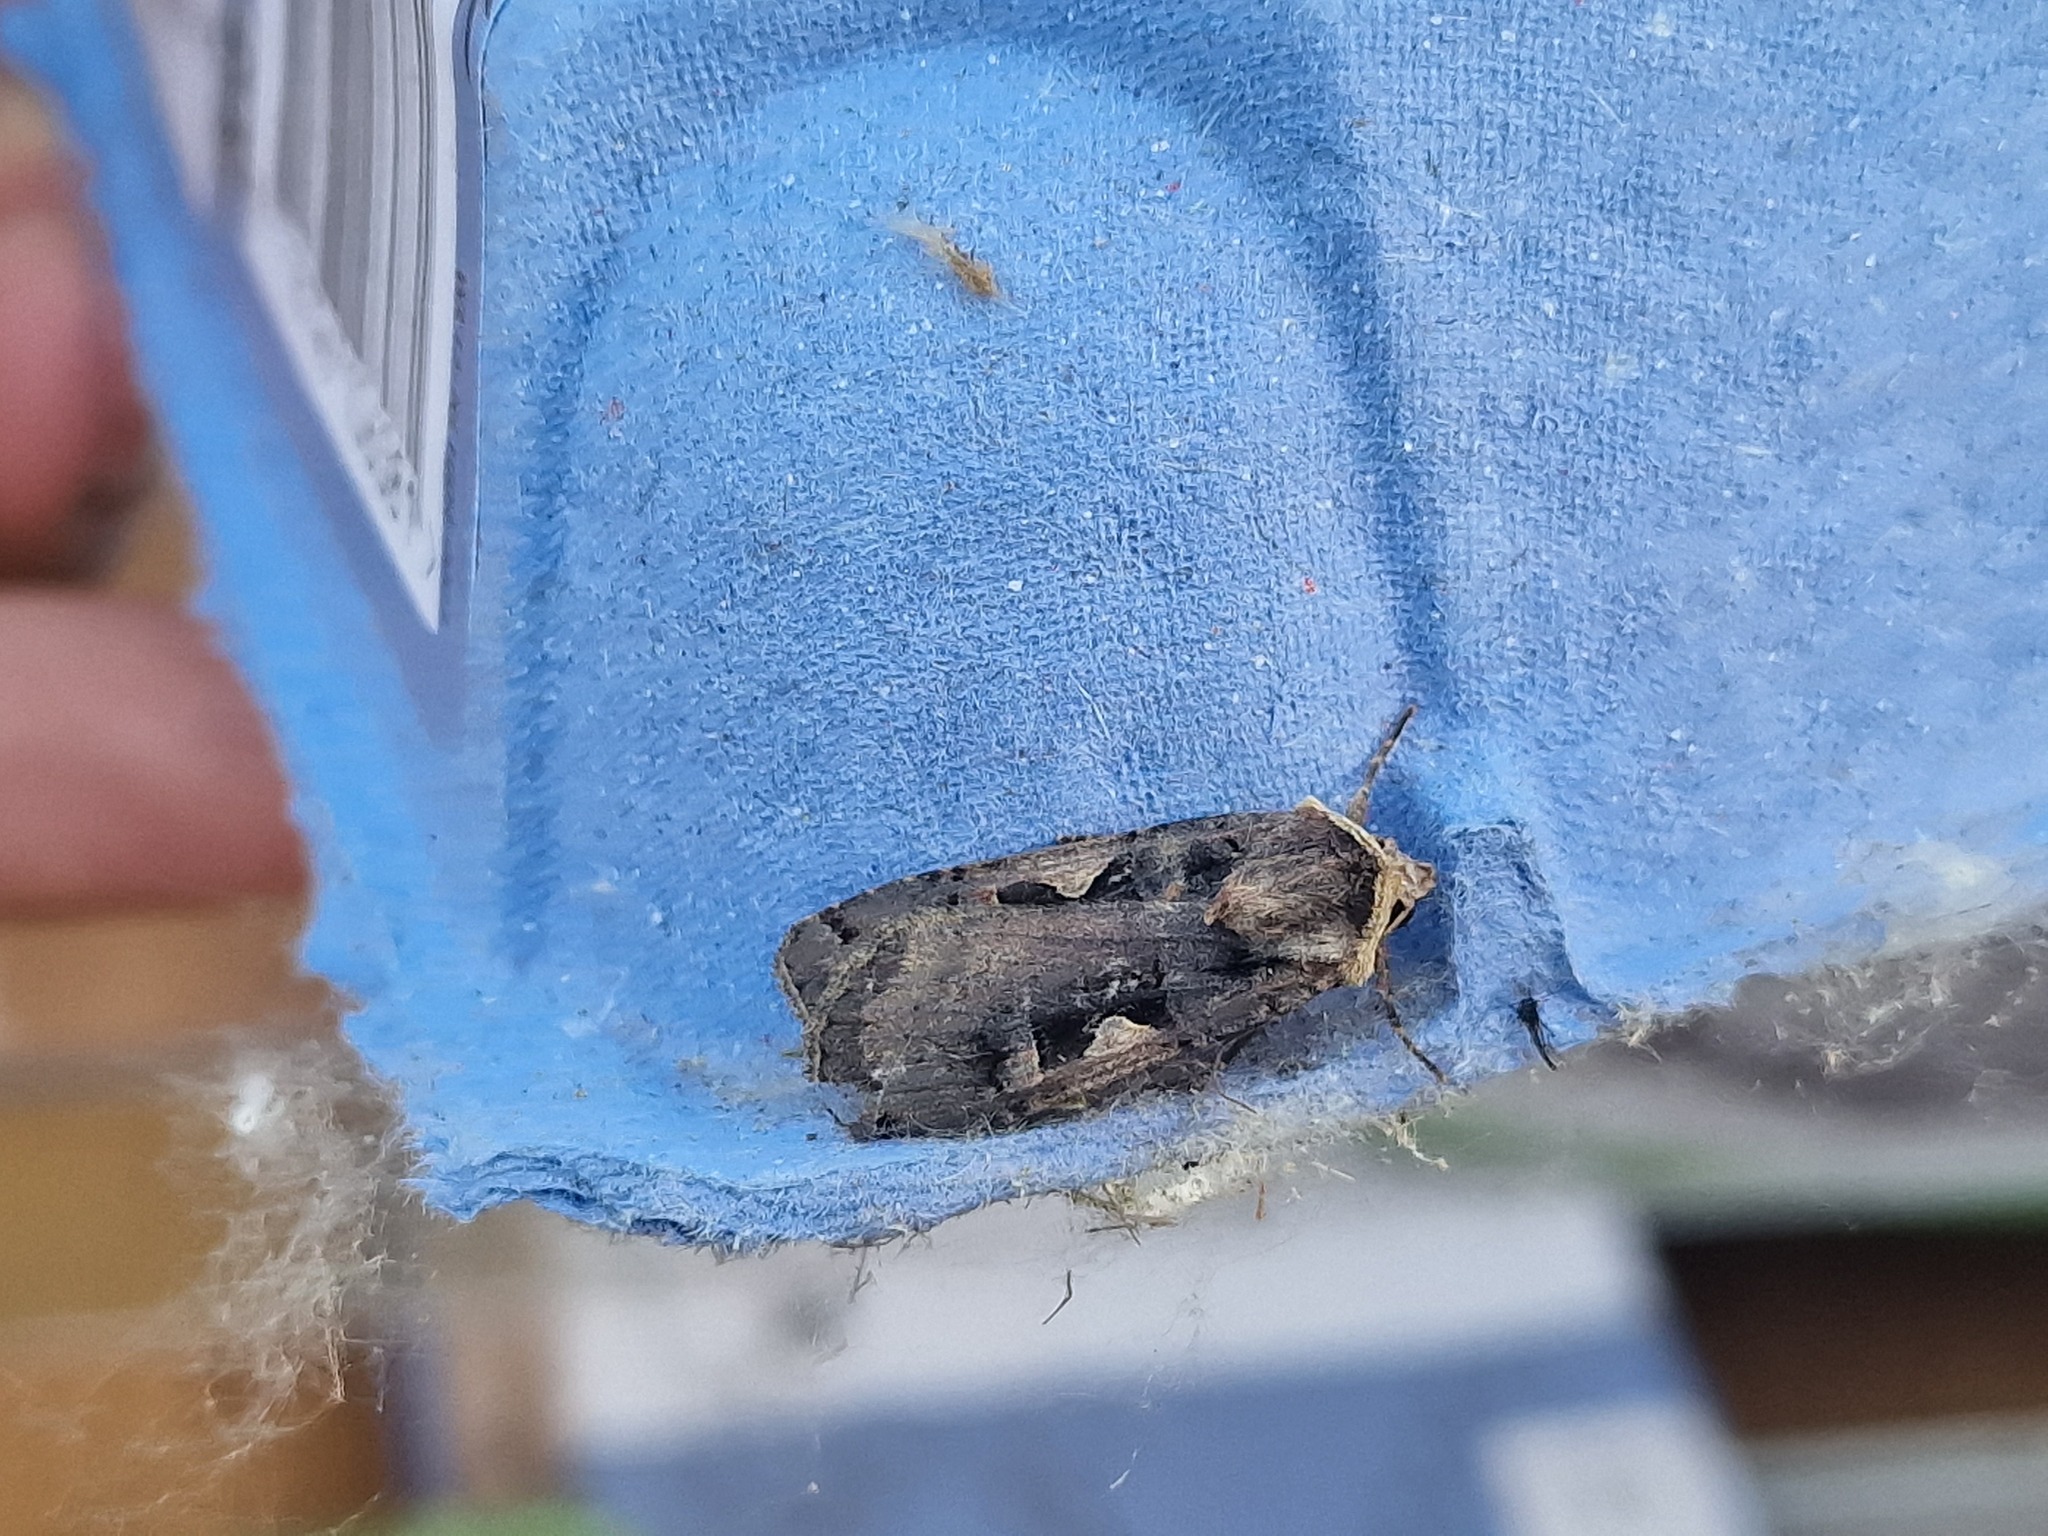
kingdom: Animalia
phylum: Arthropoda
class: Insecta
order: Lepidoptera
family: Noctuidae
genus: Xestia
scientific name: Xestia c-nigrum
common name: Setaceous hebrew character
